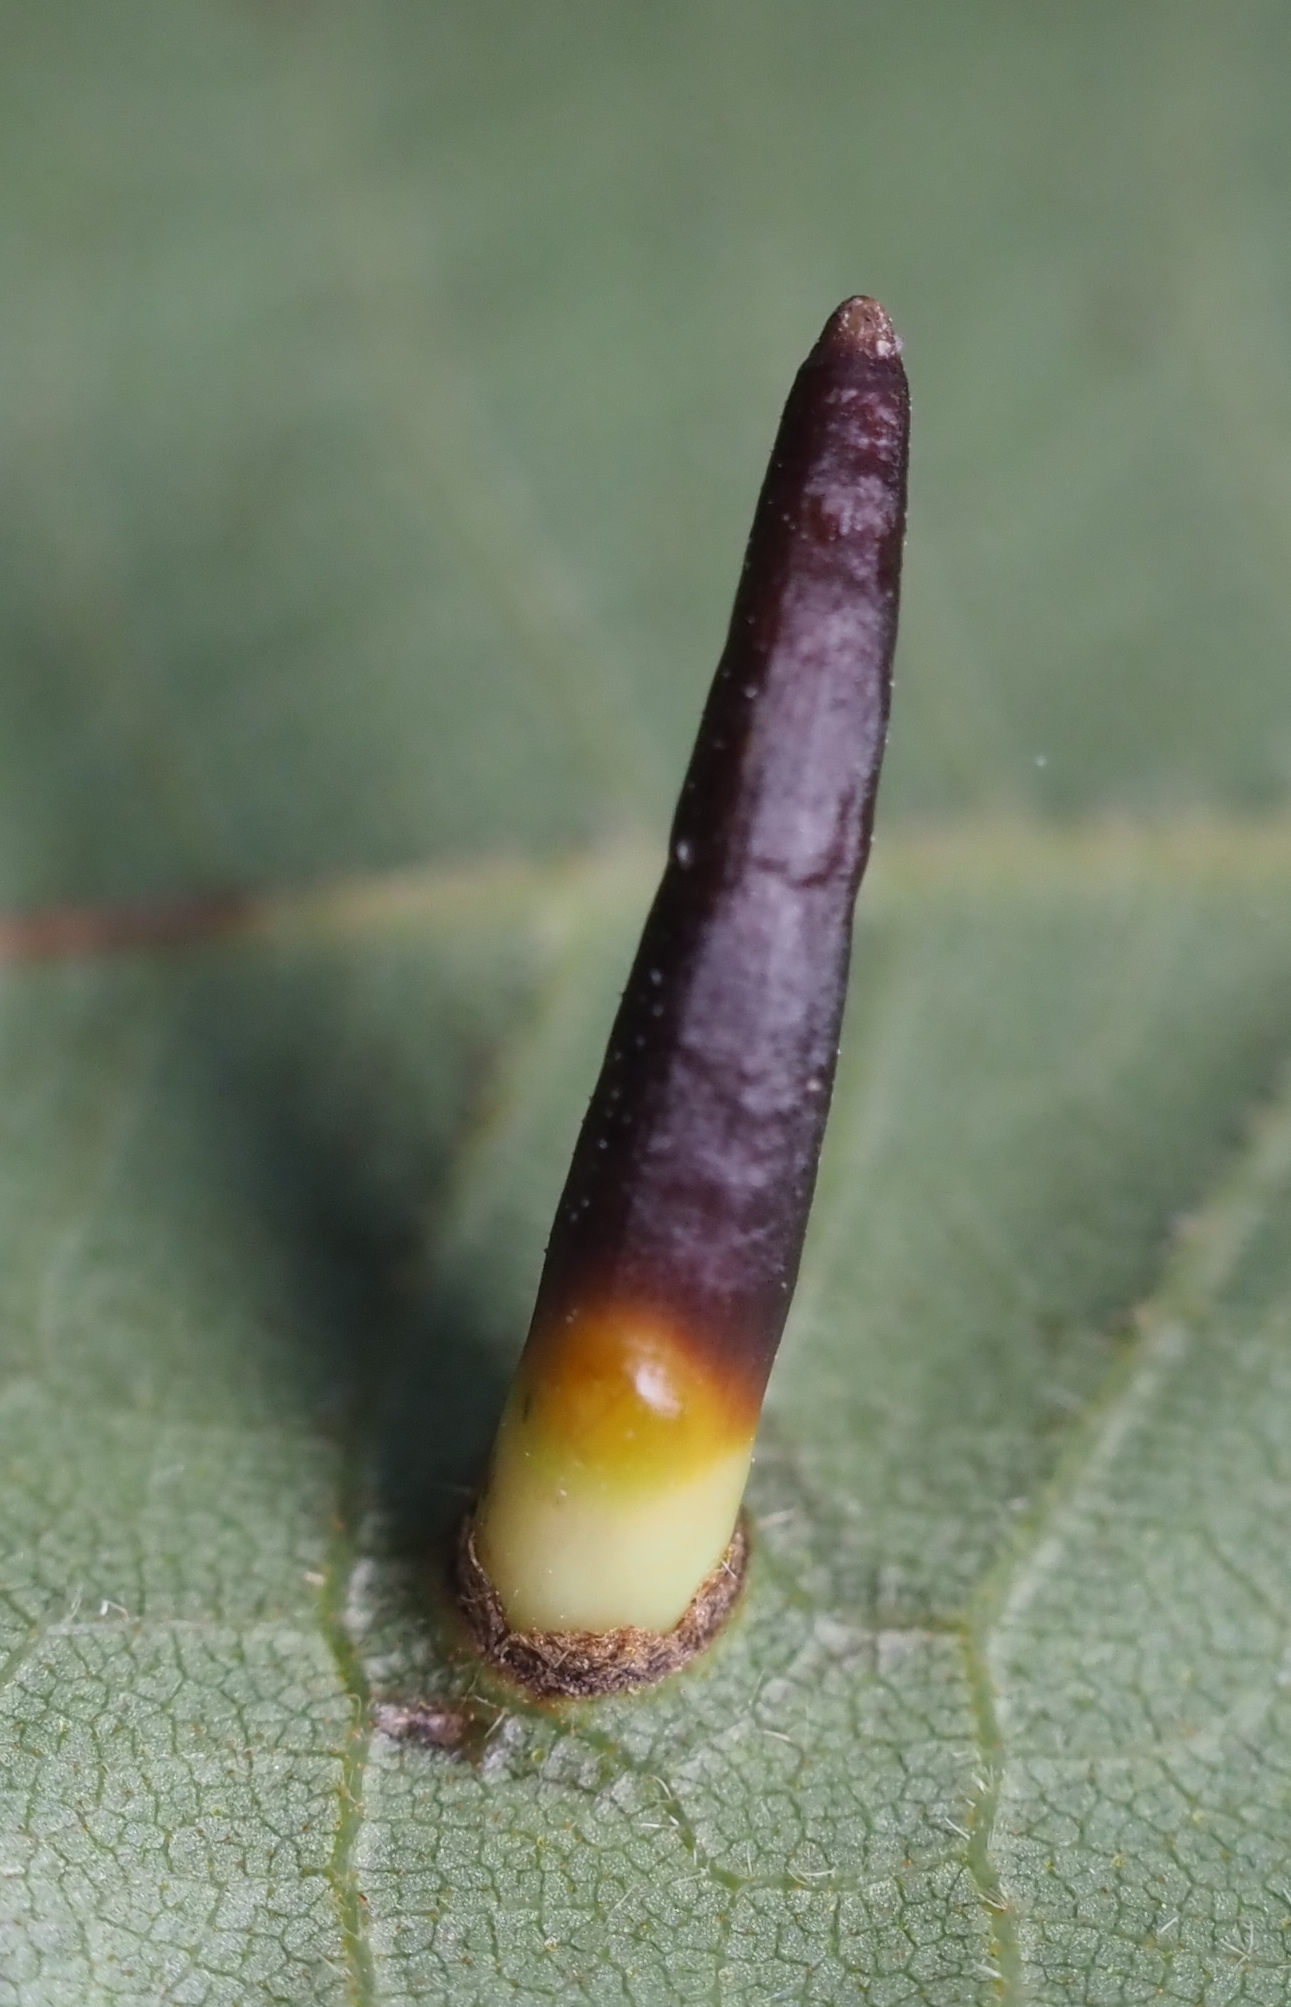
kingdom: Animalia
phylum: Arthropoda
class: Insecta
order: Diptera
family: Cecidomyiidae
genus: Caryomyia
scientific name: Caryomyia subulata
